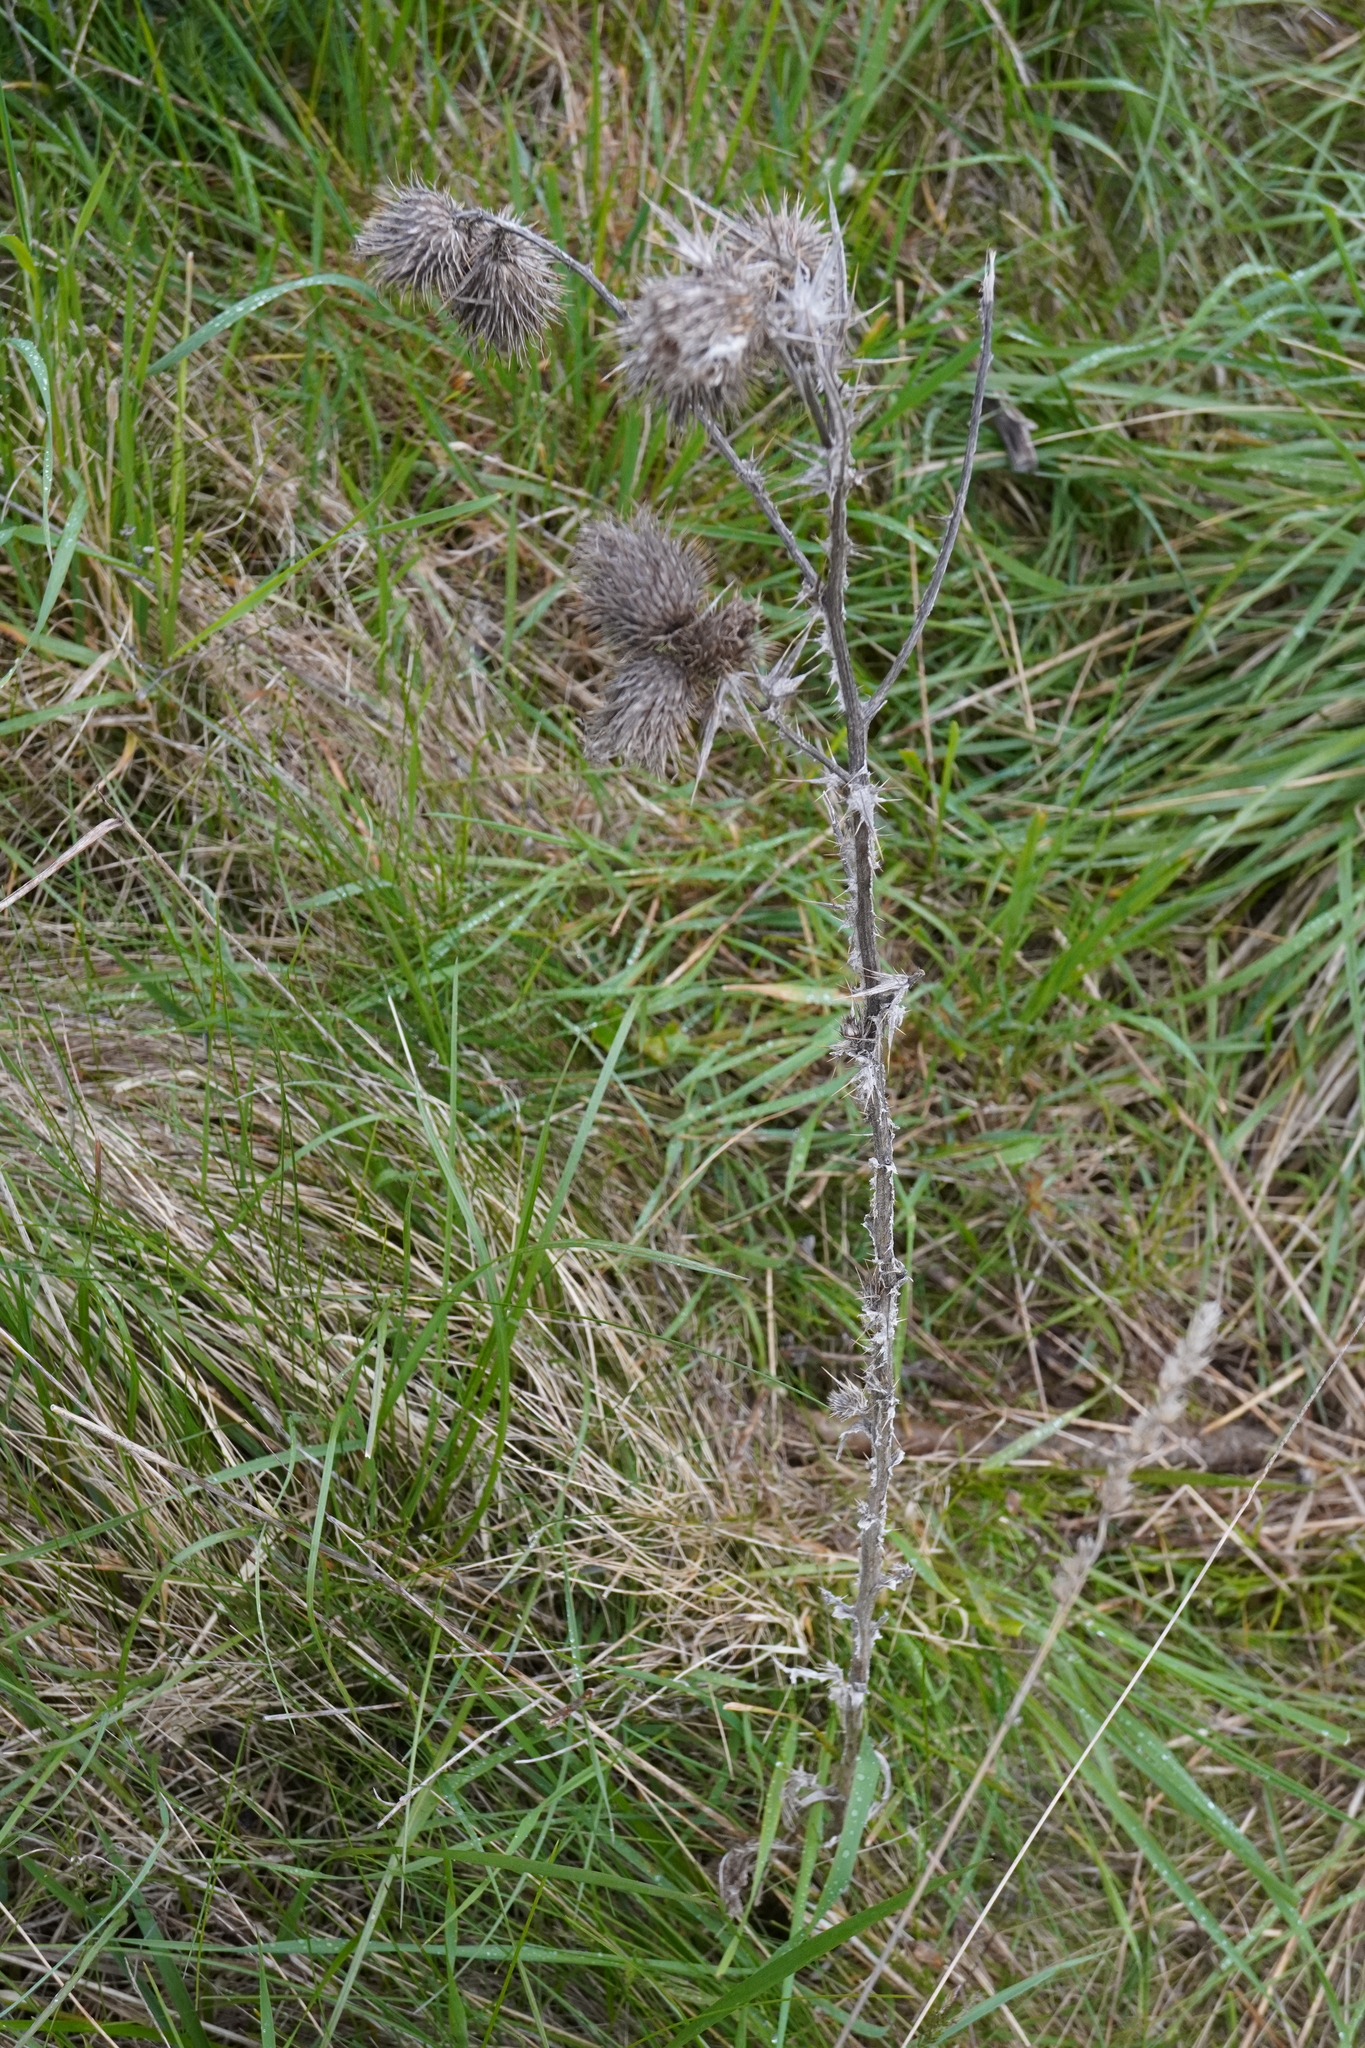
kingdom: Plantae
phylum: Tracheophyta
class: Magnoliopsida
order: Asterales
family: Asteraceae
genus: Cirsium
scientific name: Cirsium vulgare
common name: Bull thistle
